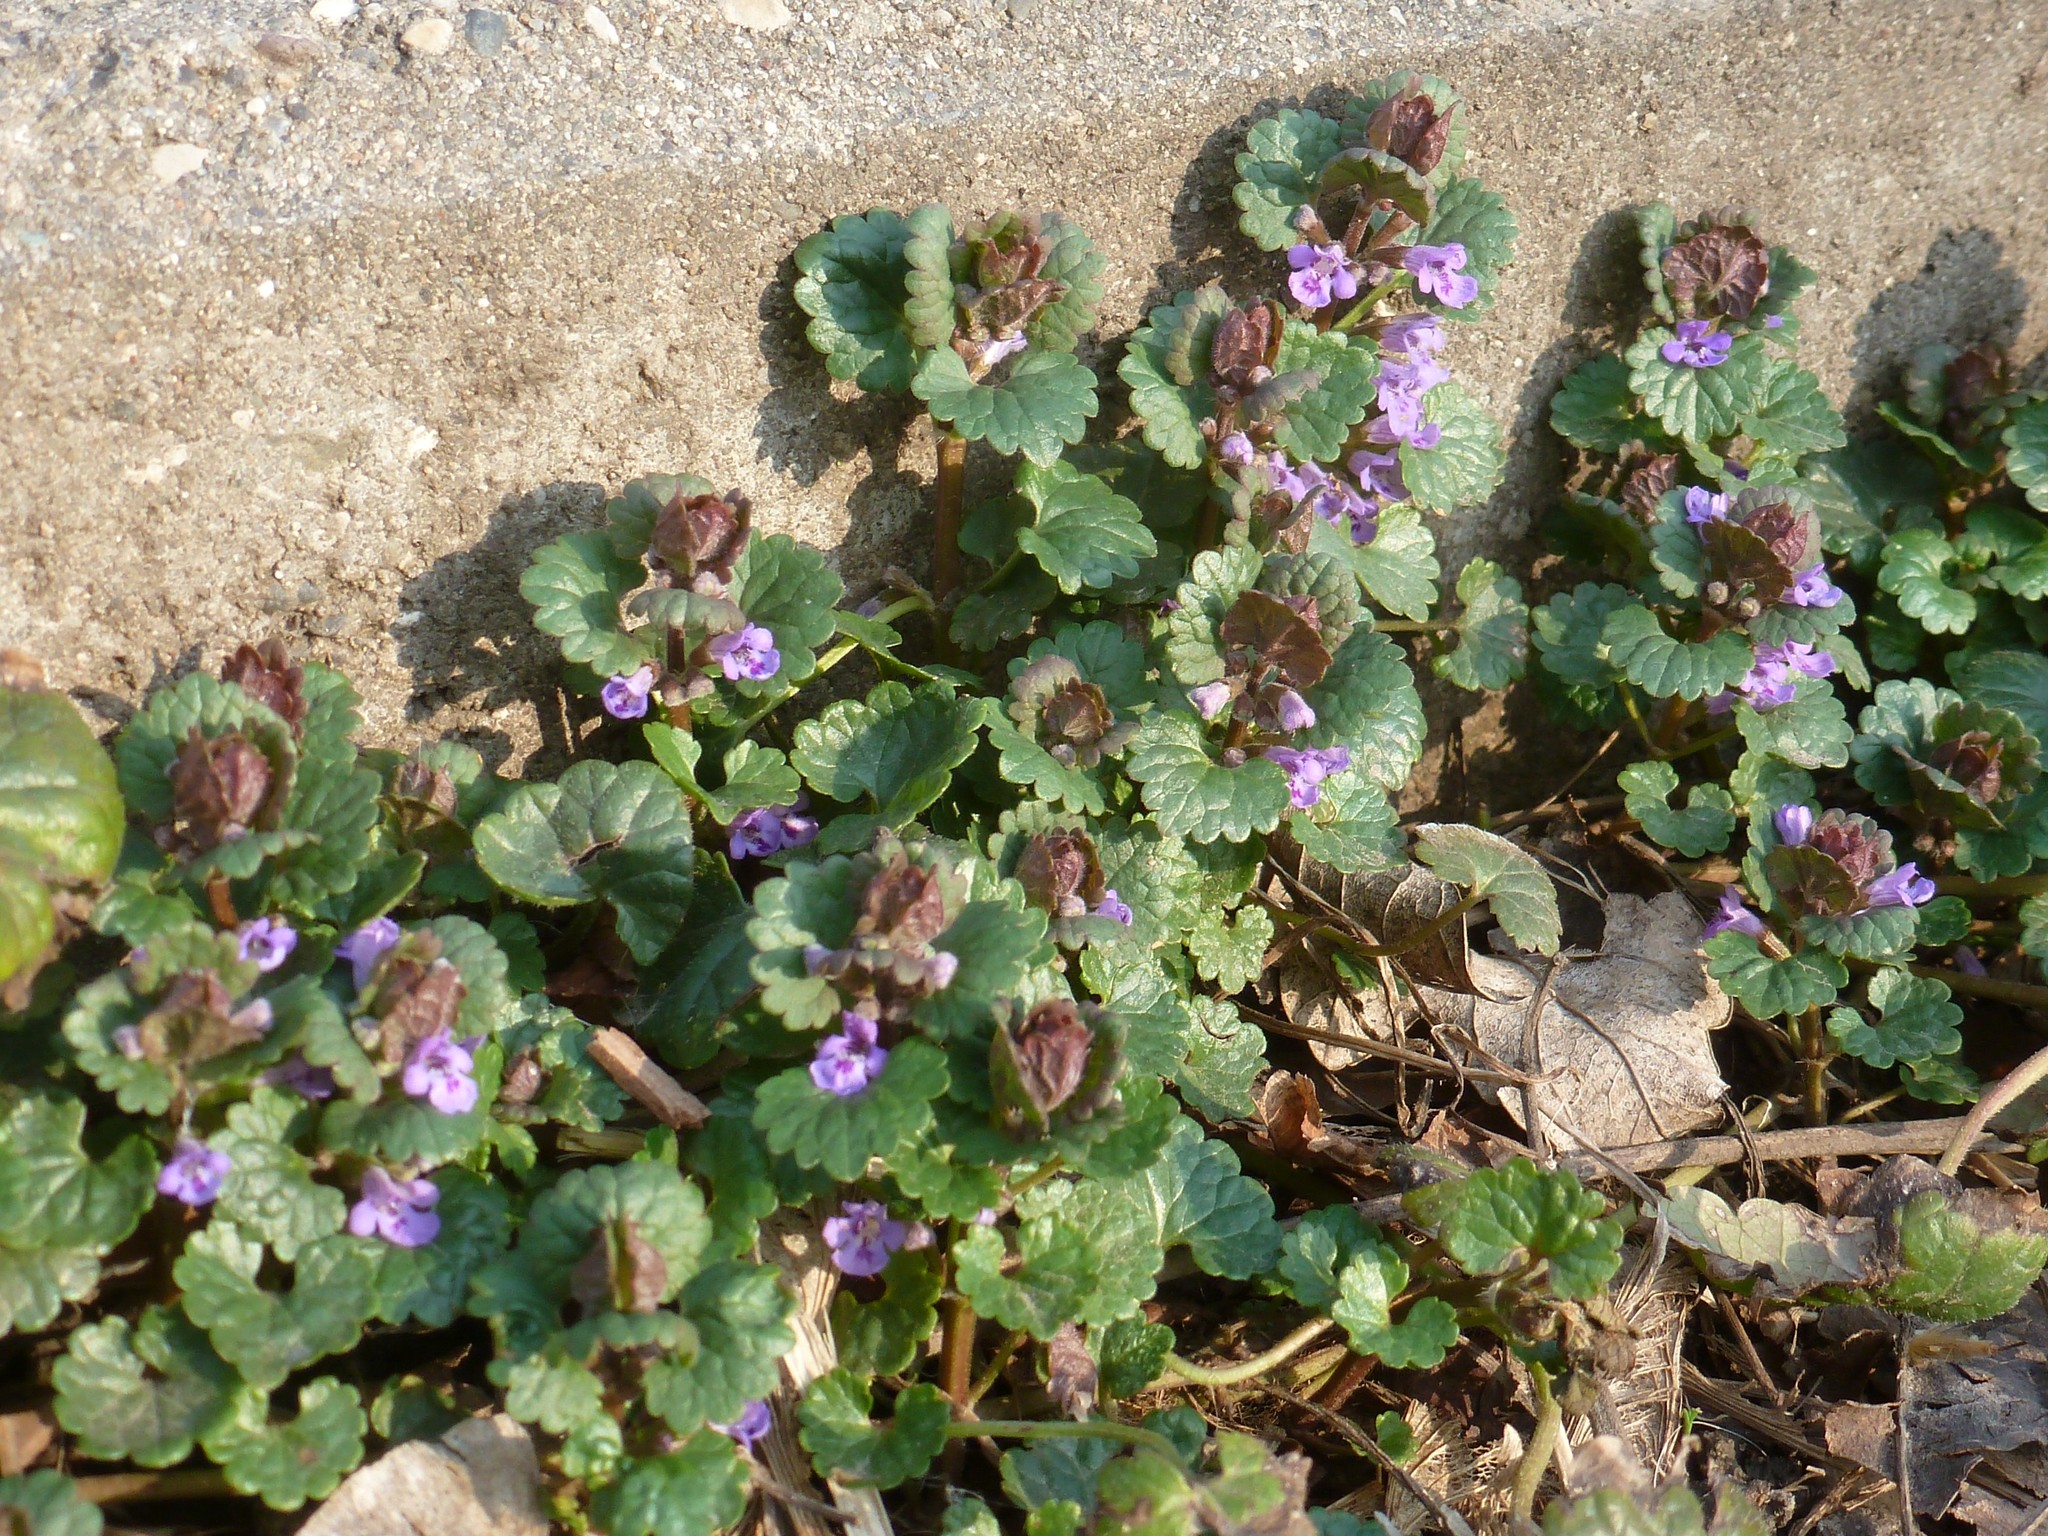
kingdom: Plantae
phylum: Tracheophyta
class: Magnoliopsida
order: Lamiales
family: Lamiaceae
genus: Glechoma
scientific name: Glechoma hederacea
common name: Ground ivy
